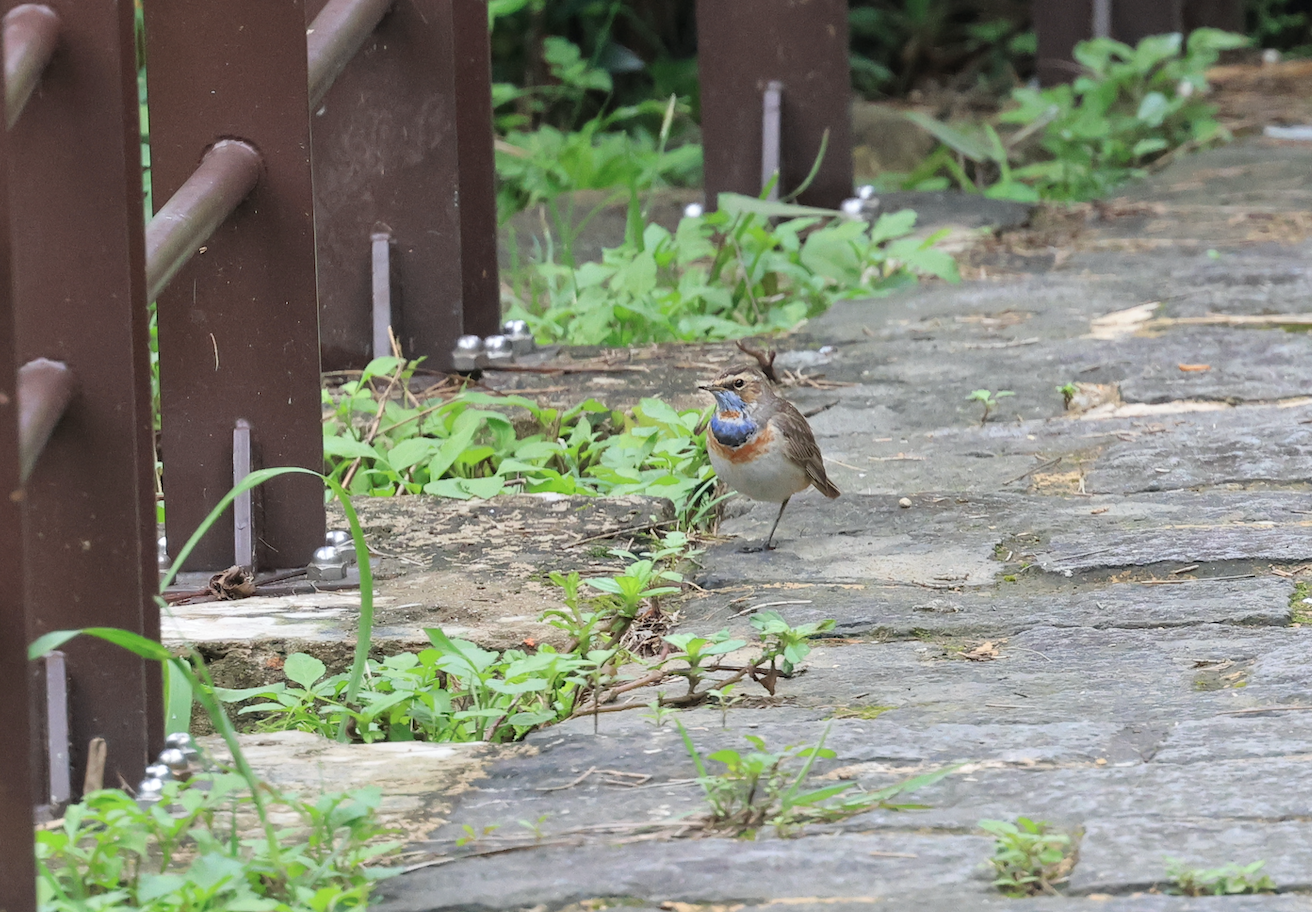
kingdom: Animalia
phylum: Chordata
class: Aves
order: Passeriformes
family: Muscicapidae
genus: Luscinia
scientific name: Luscinia svecica
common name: Bluethroat
